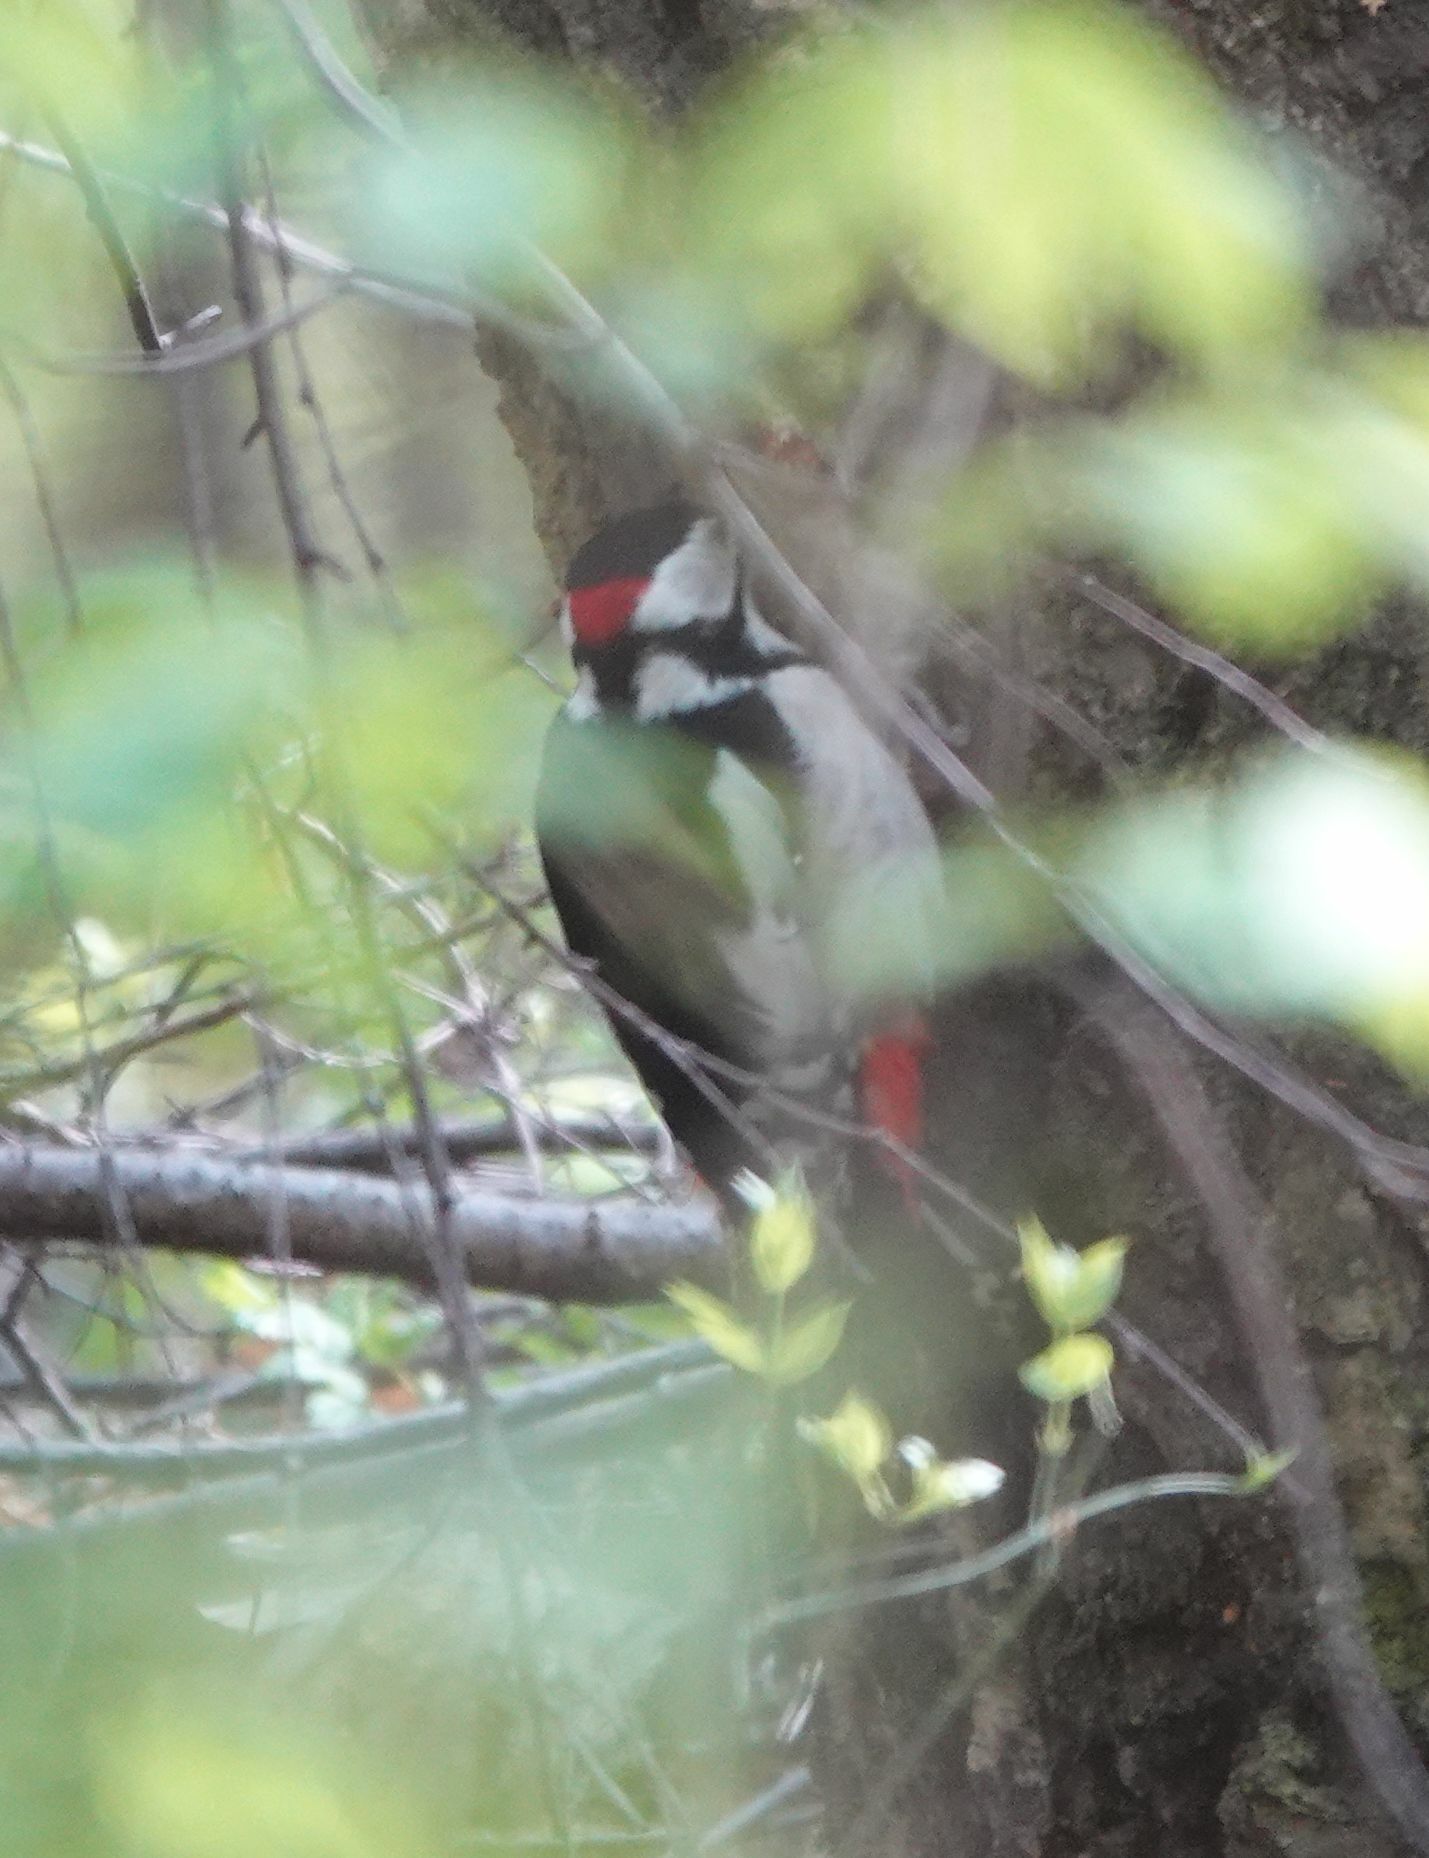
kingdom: Animalia
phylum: Chordata
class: Aves
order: Piciformes
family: Picidae
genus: Dendrocopos
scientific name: Dendrocopos major
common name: Great spotted woodpecker
